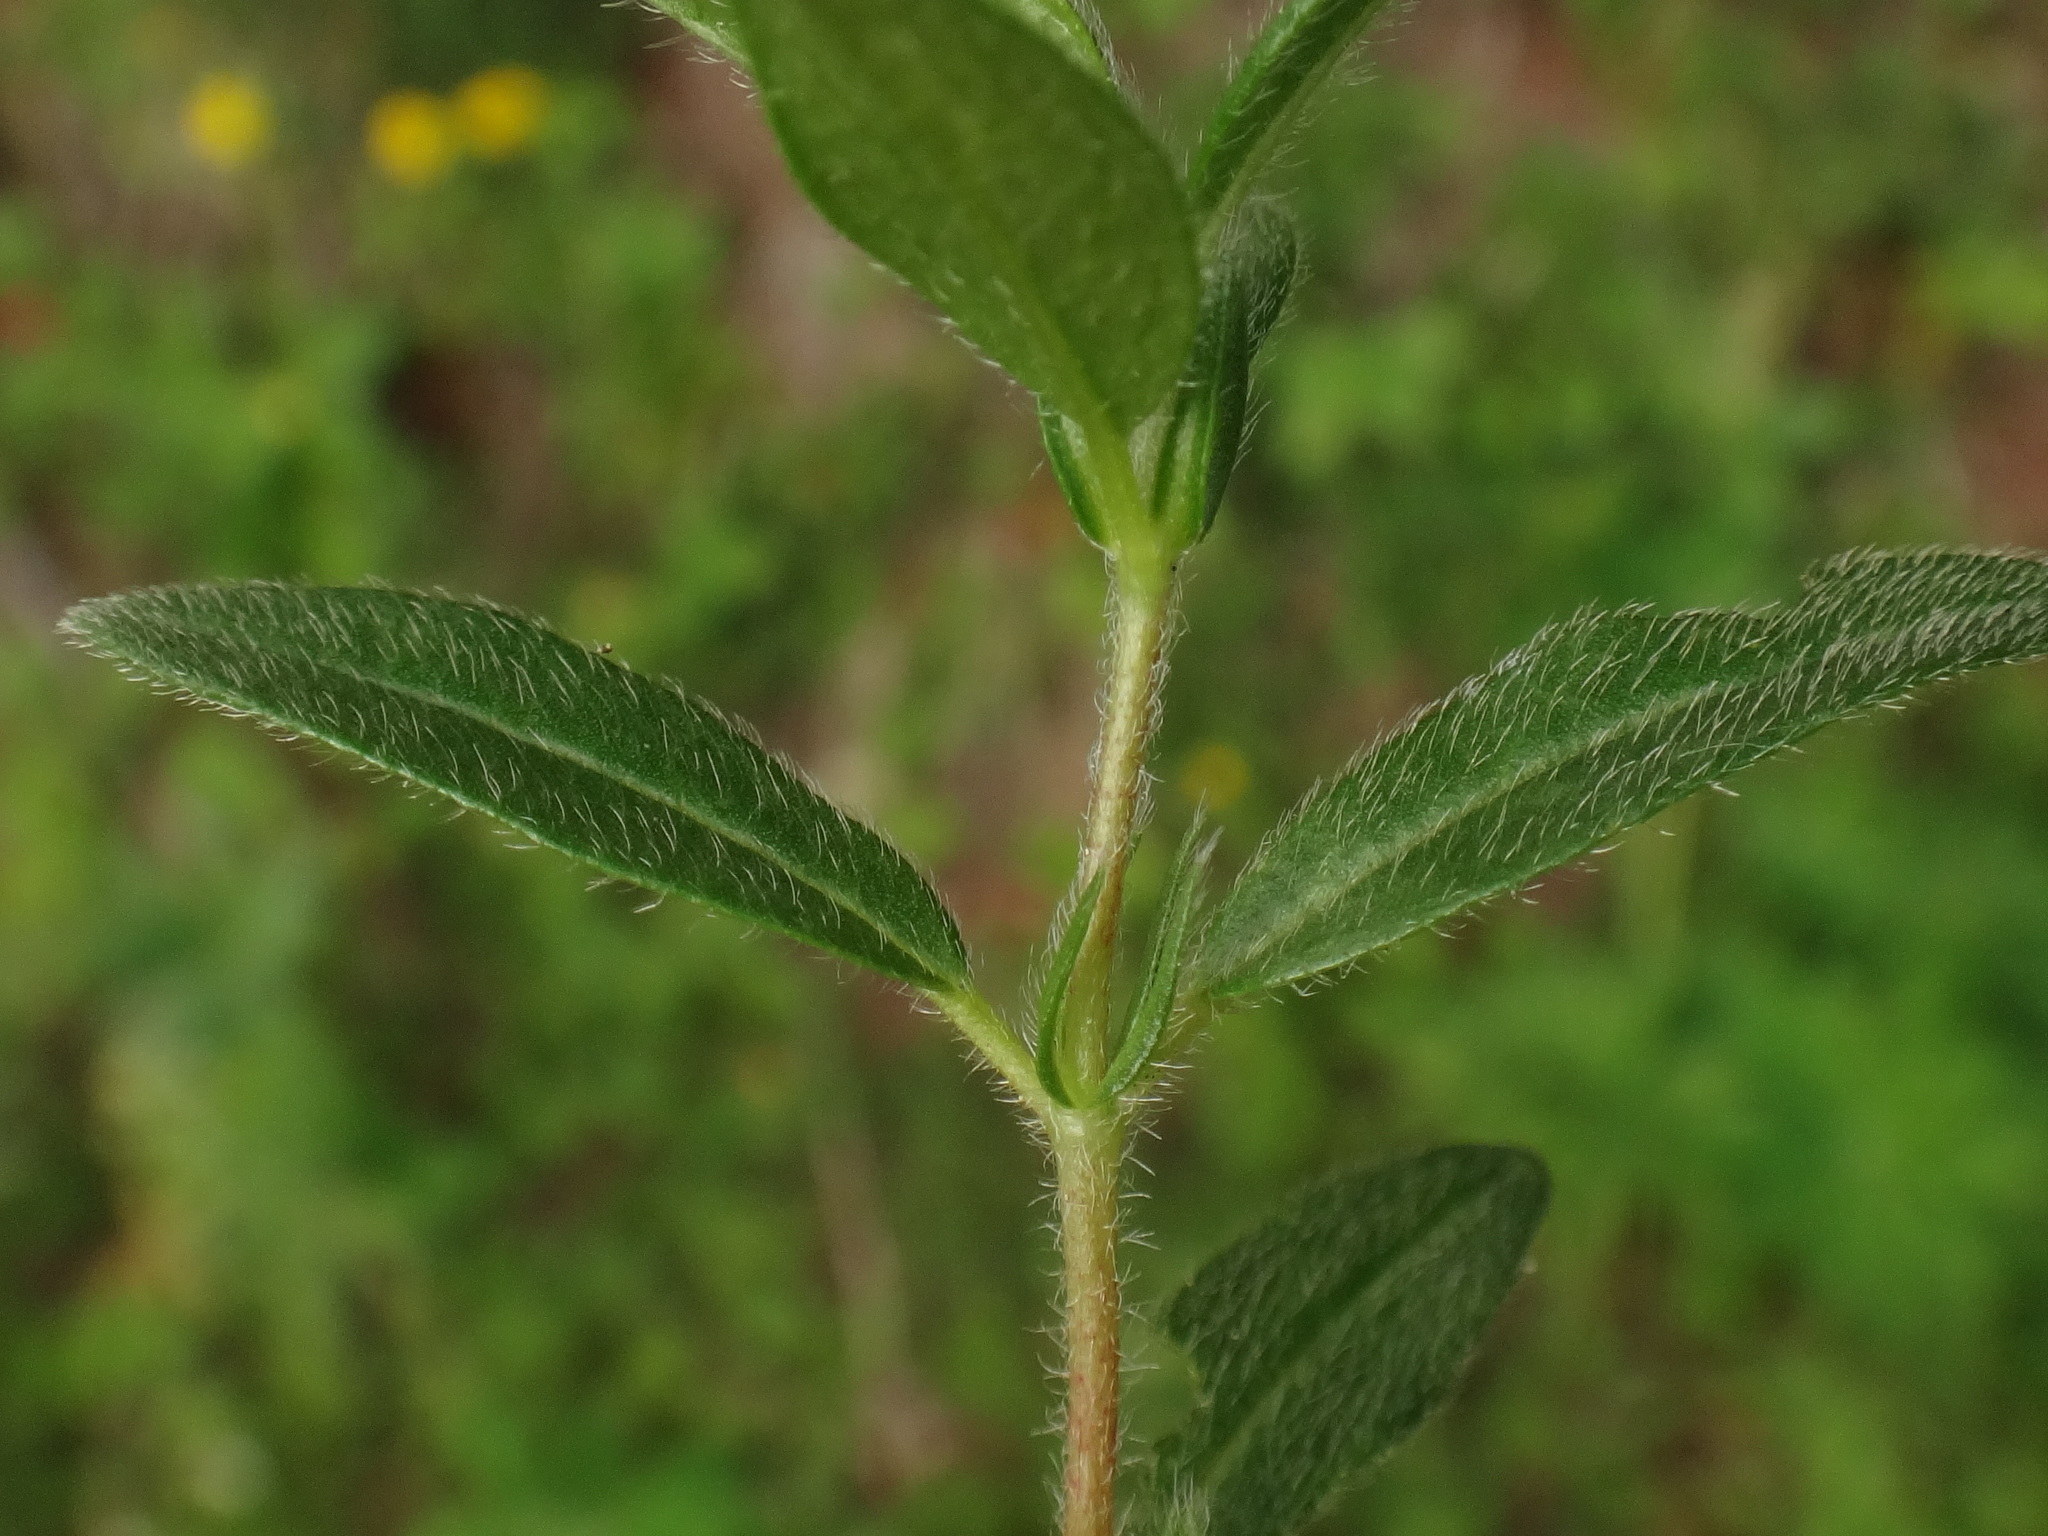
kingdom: Plantae
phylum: Tracheophyta
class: Magnoliopsida
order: Malvales
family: Cistaceae
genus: Helianthemum
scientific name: Helianthemum nummularium
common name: Common rock-rose
